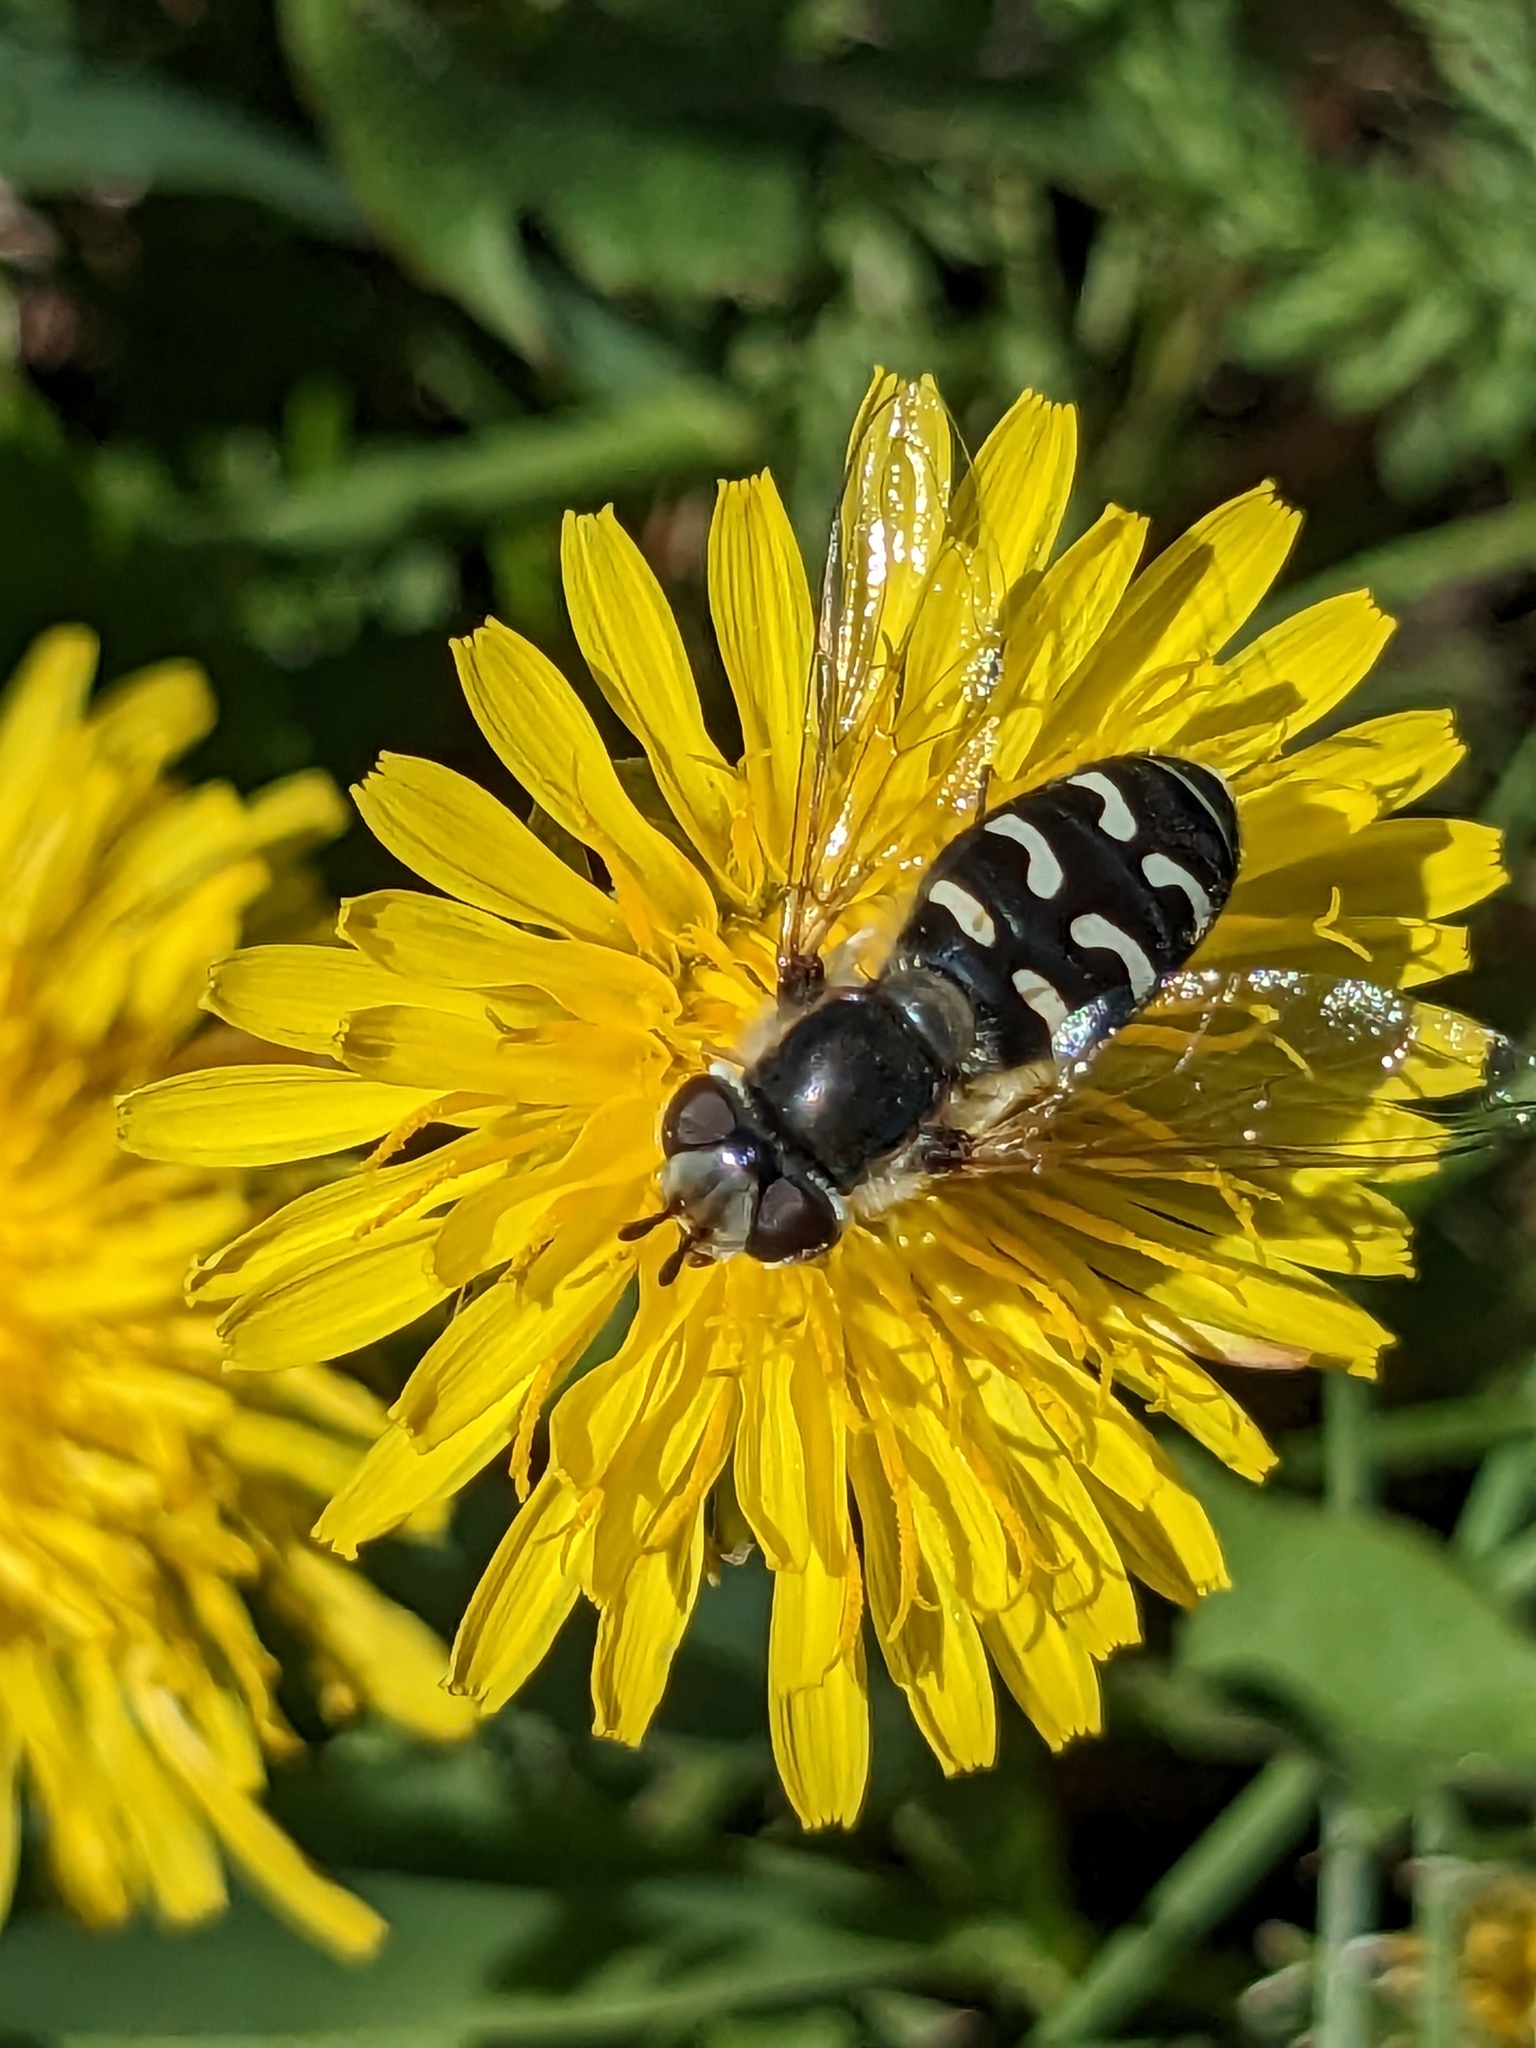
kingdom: Animalia
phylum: Arthropoda
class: Insecta
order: Diptera
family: Syrphidae
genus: Scaeva
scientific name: Scaeva affinis
